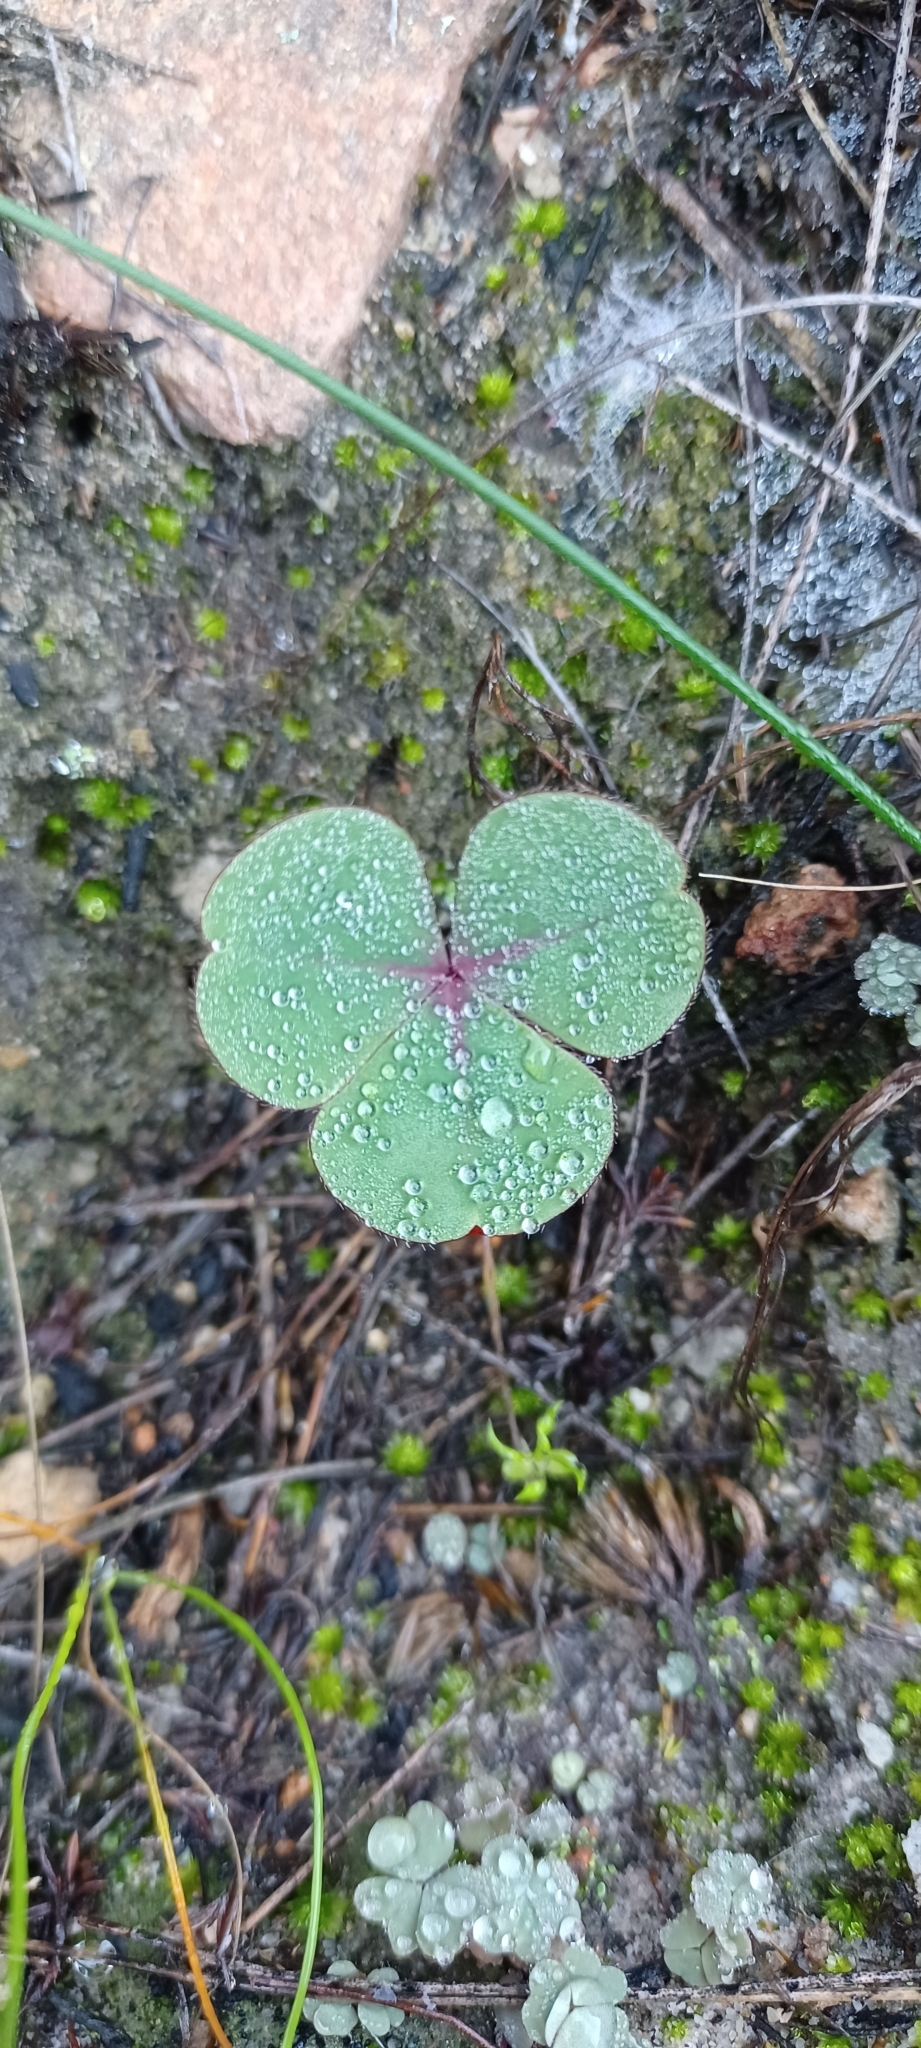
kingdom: Plantae
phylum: Tracheophyta
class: Magnoliopsida
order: Oxalidales
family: Oxalidaceae
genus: Oxalis
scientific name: Oxalis eckloniana
